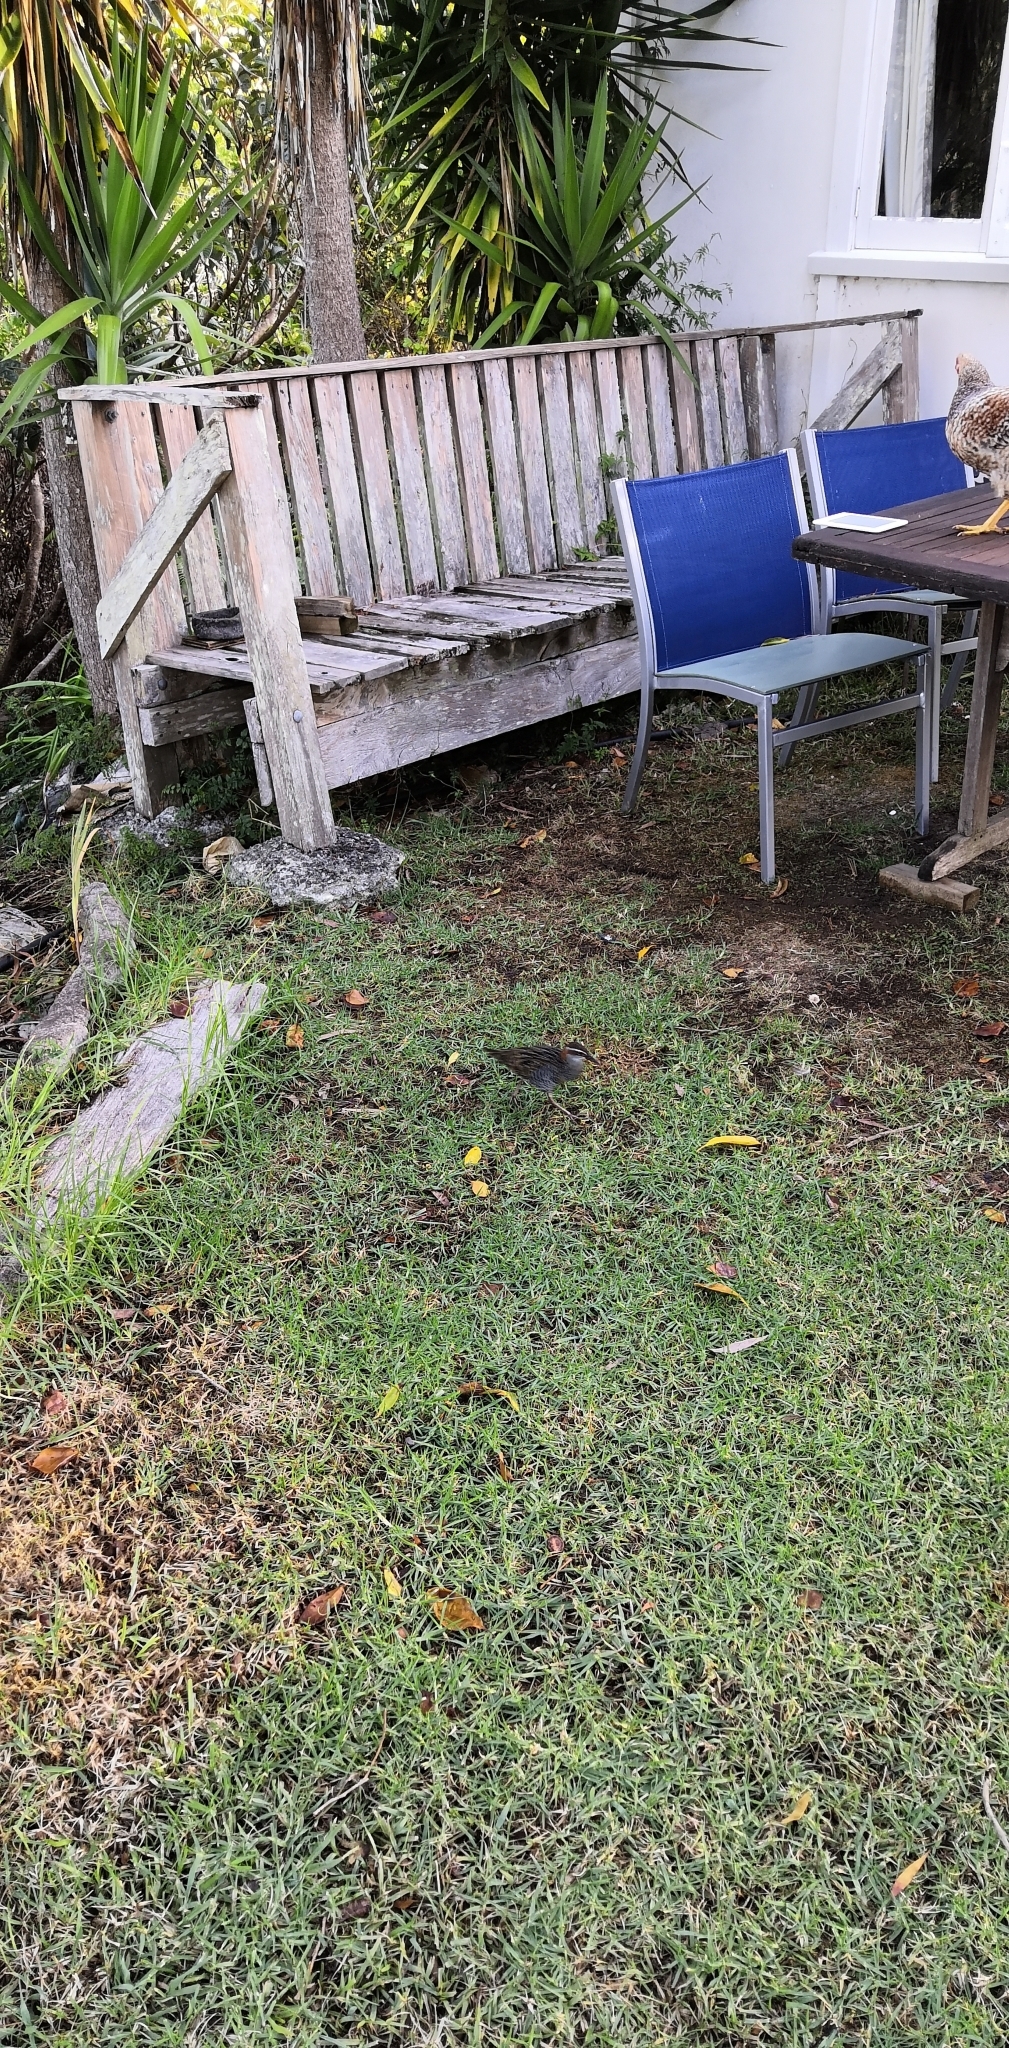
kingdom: Animalia
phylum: Chordata
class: Aves
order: Gruiformes
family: Rallidae
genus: Gallirallus
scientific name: Gallirallus philippensis
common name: Buff-banded rail
